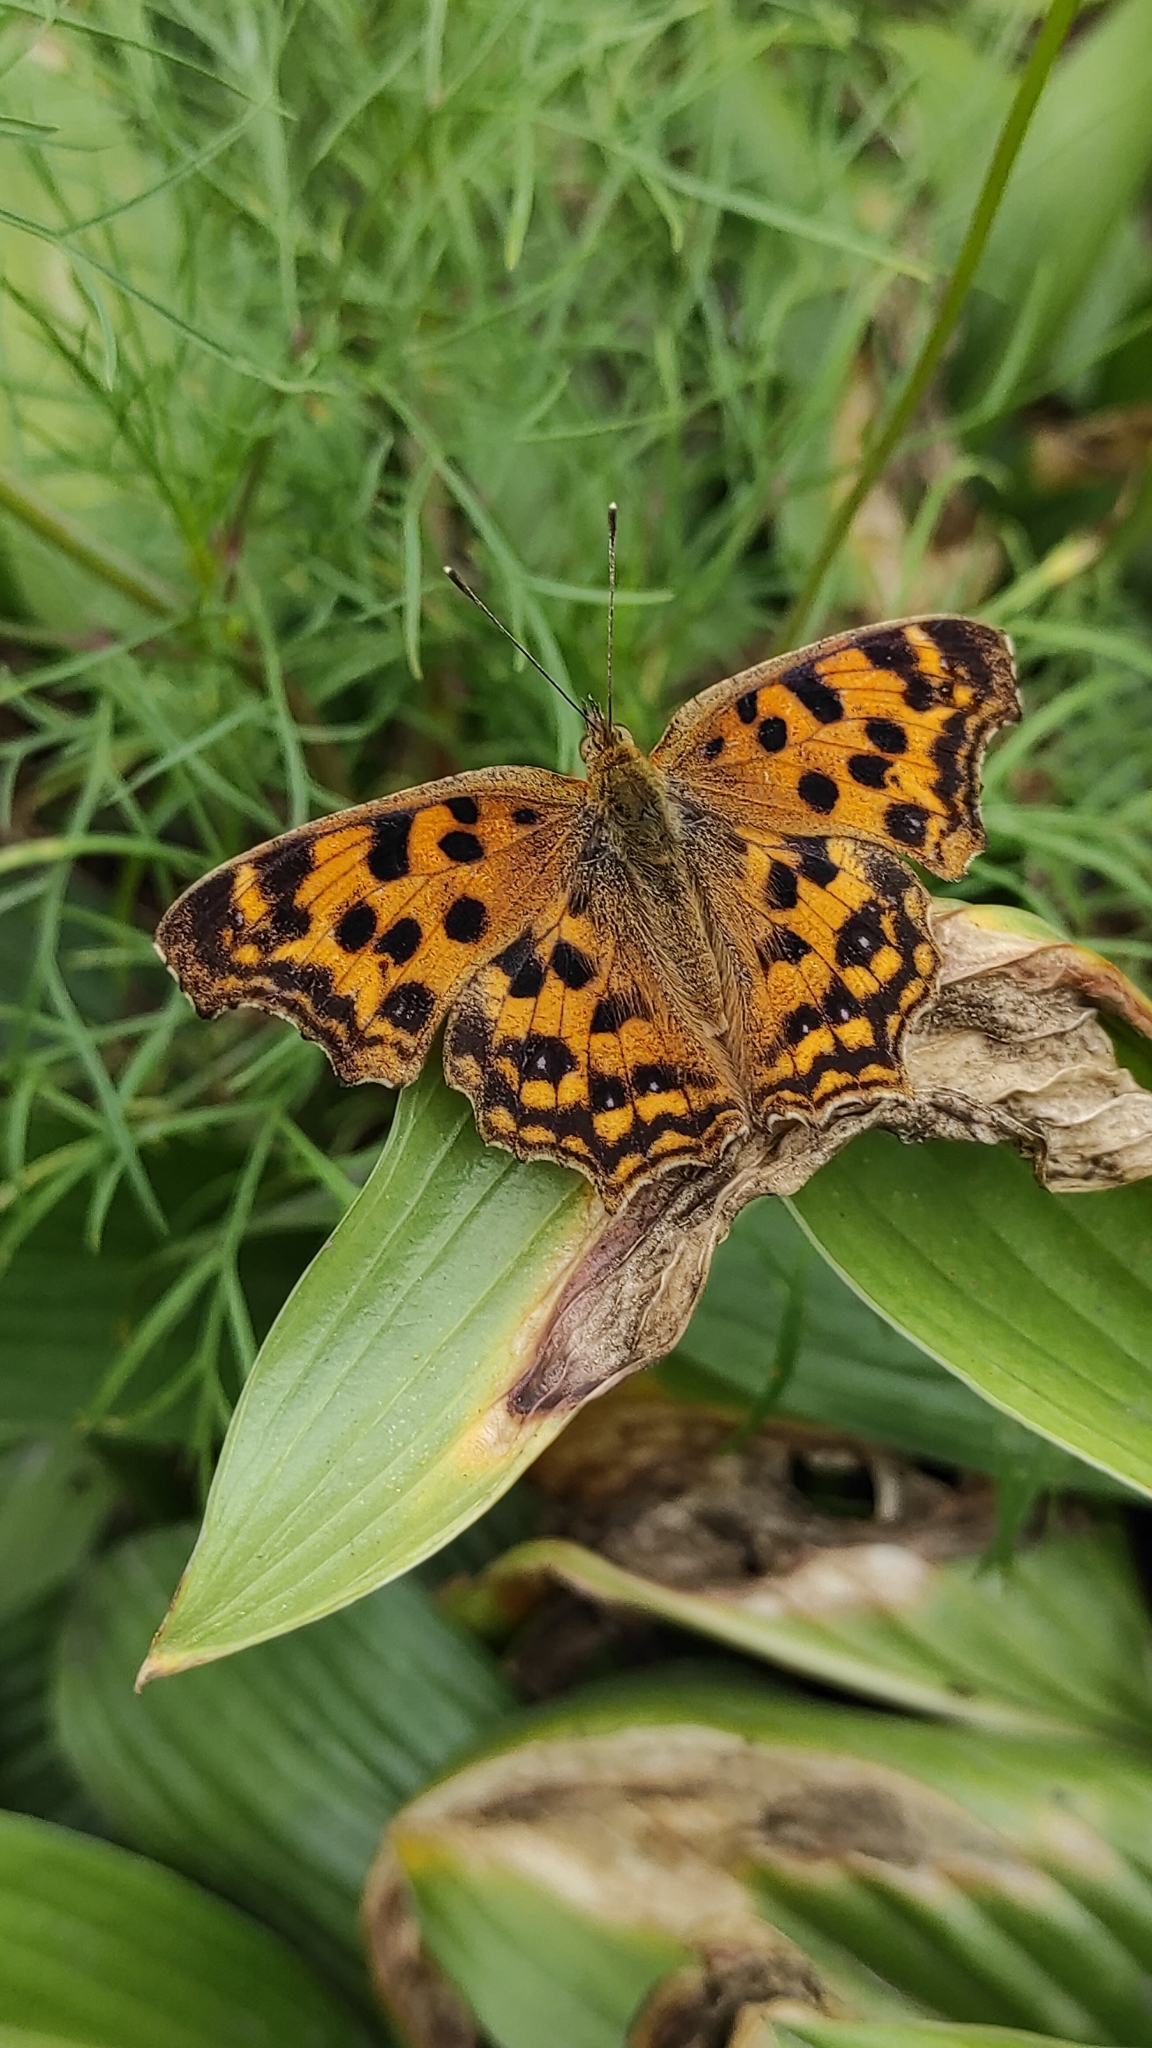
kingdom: Animalia
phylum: Arthropoda
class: Insecta
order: Lepidoptera
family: Nymphalidae
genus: Polygonia
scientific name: Polygonia c-aureum
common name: Asian comma
